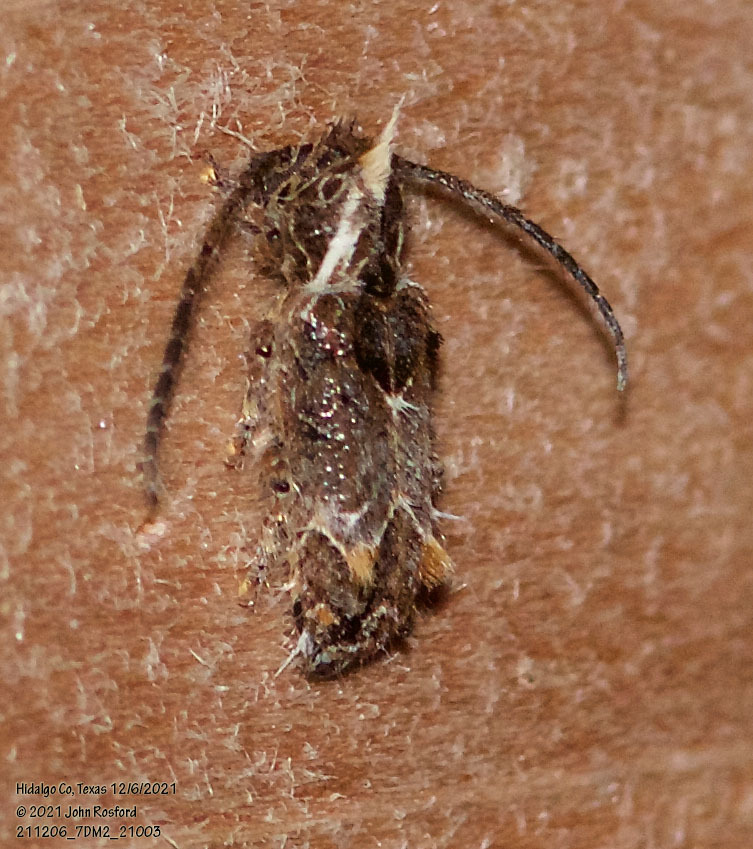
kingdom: Animalia
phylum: Arthropoda
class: Insecta
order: Coleoptera
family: Cerambycidae
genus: Desmiphora
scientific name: Desmiphora hirticollis
